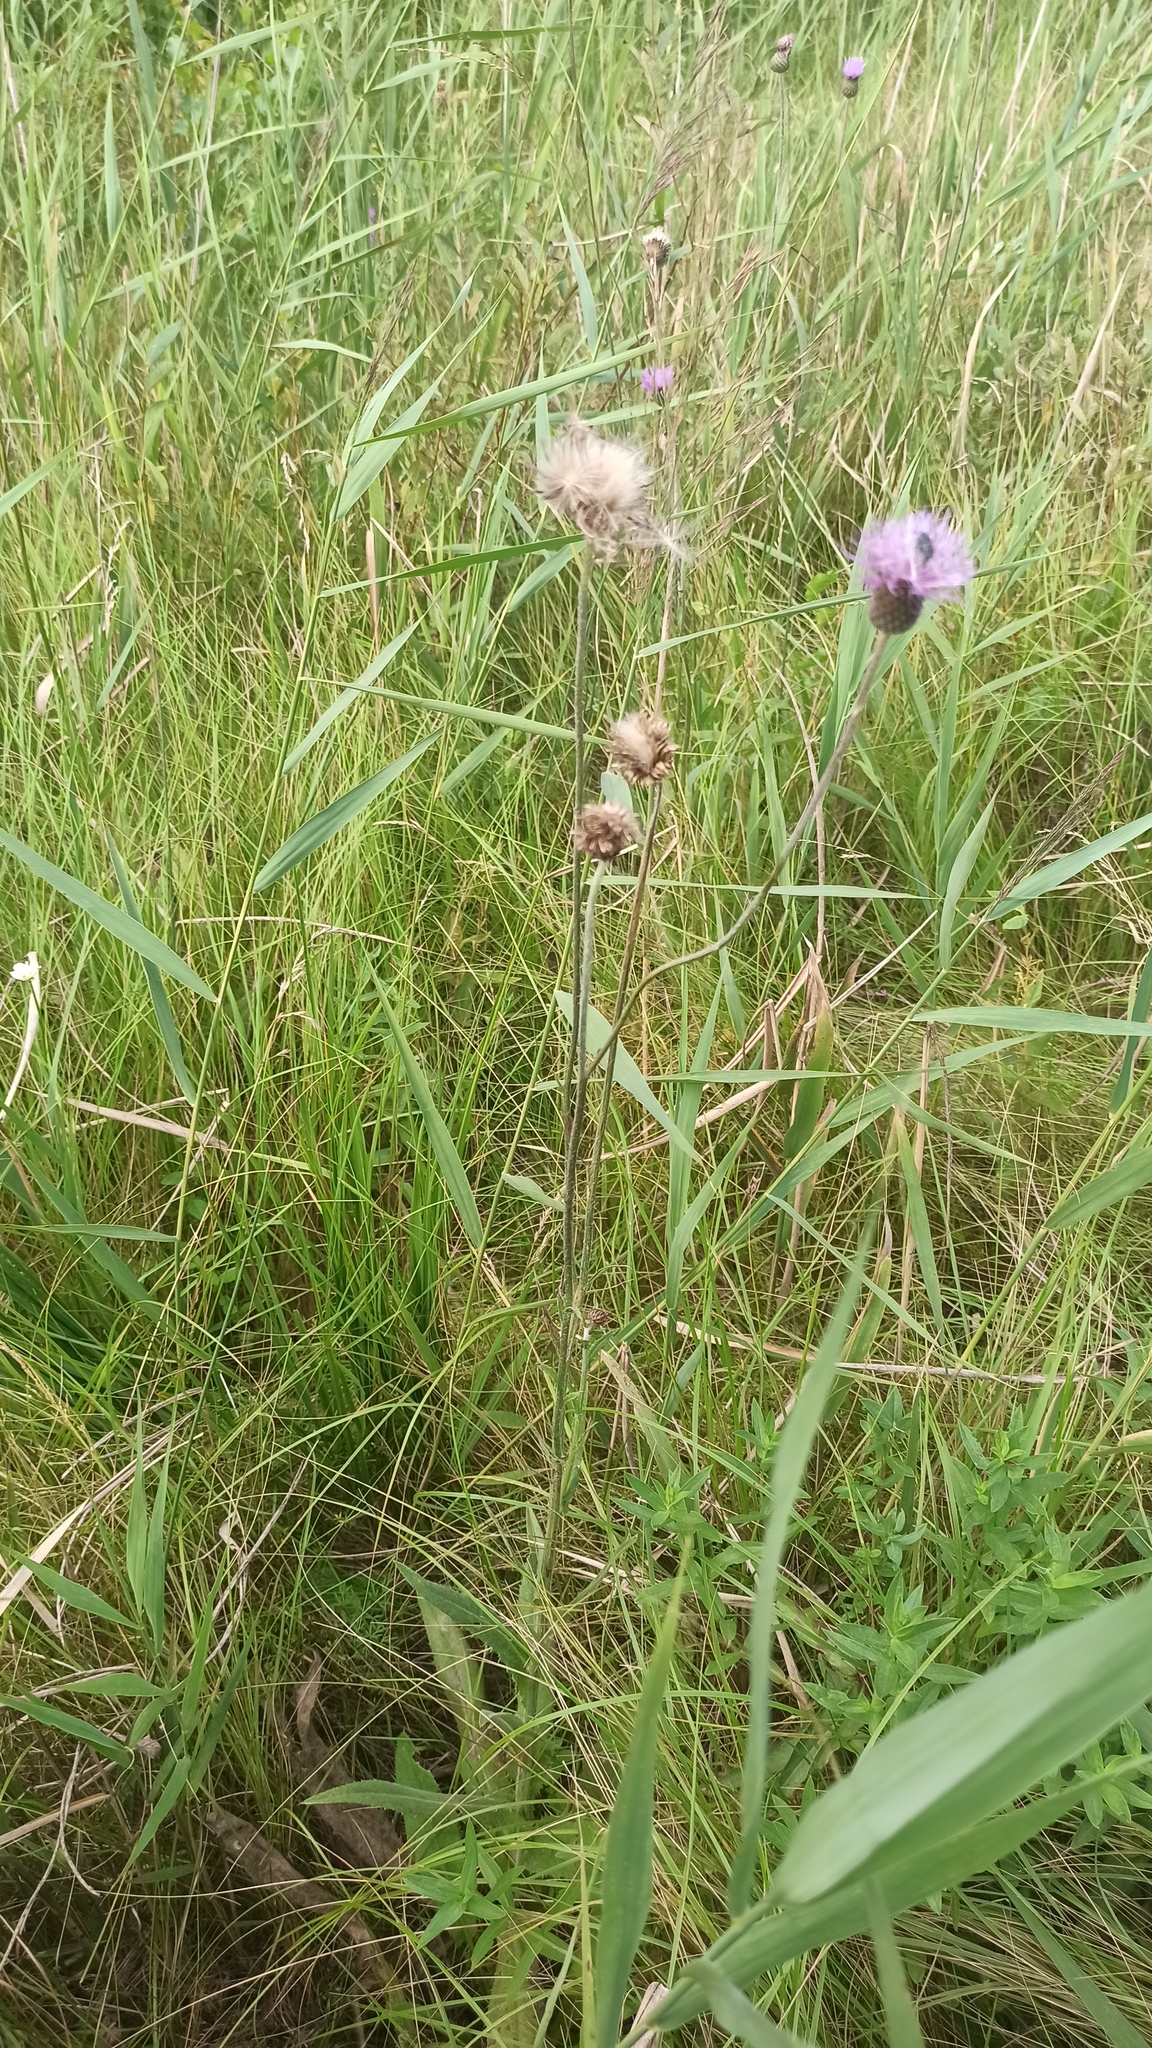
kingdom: Plantae
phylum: Tracheophyta
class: Magnoliopsida
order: Asterales
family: Asteraceae
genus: Cirsium
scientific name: Cirsium canum
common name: Queen anne's thistle
